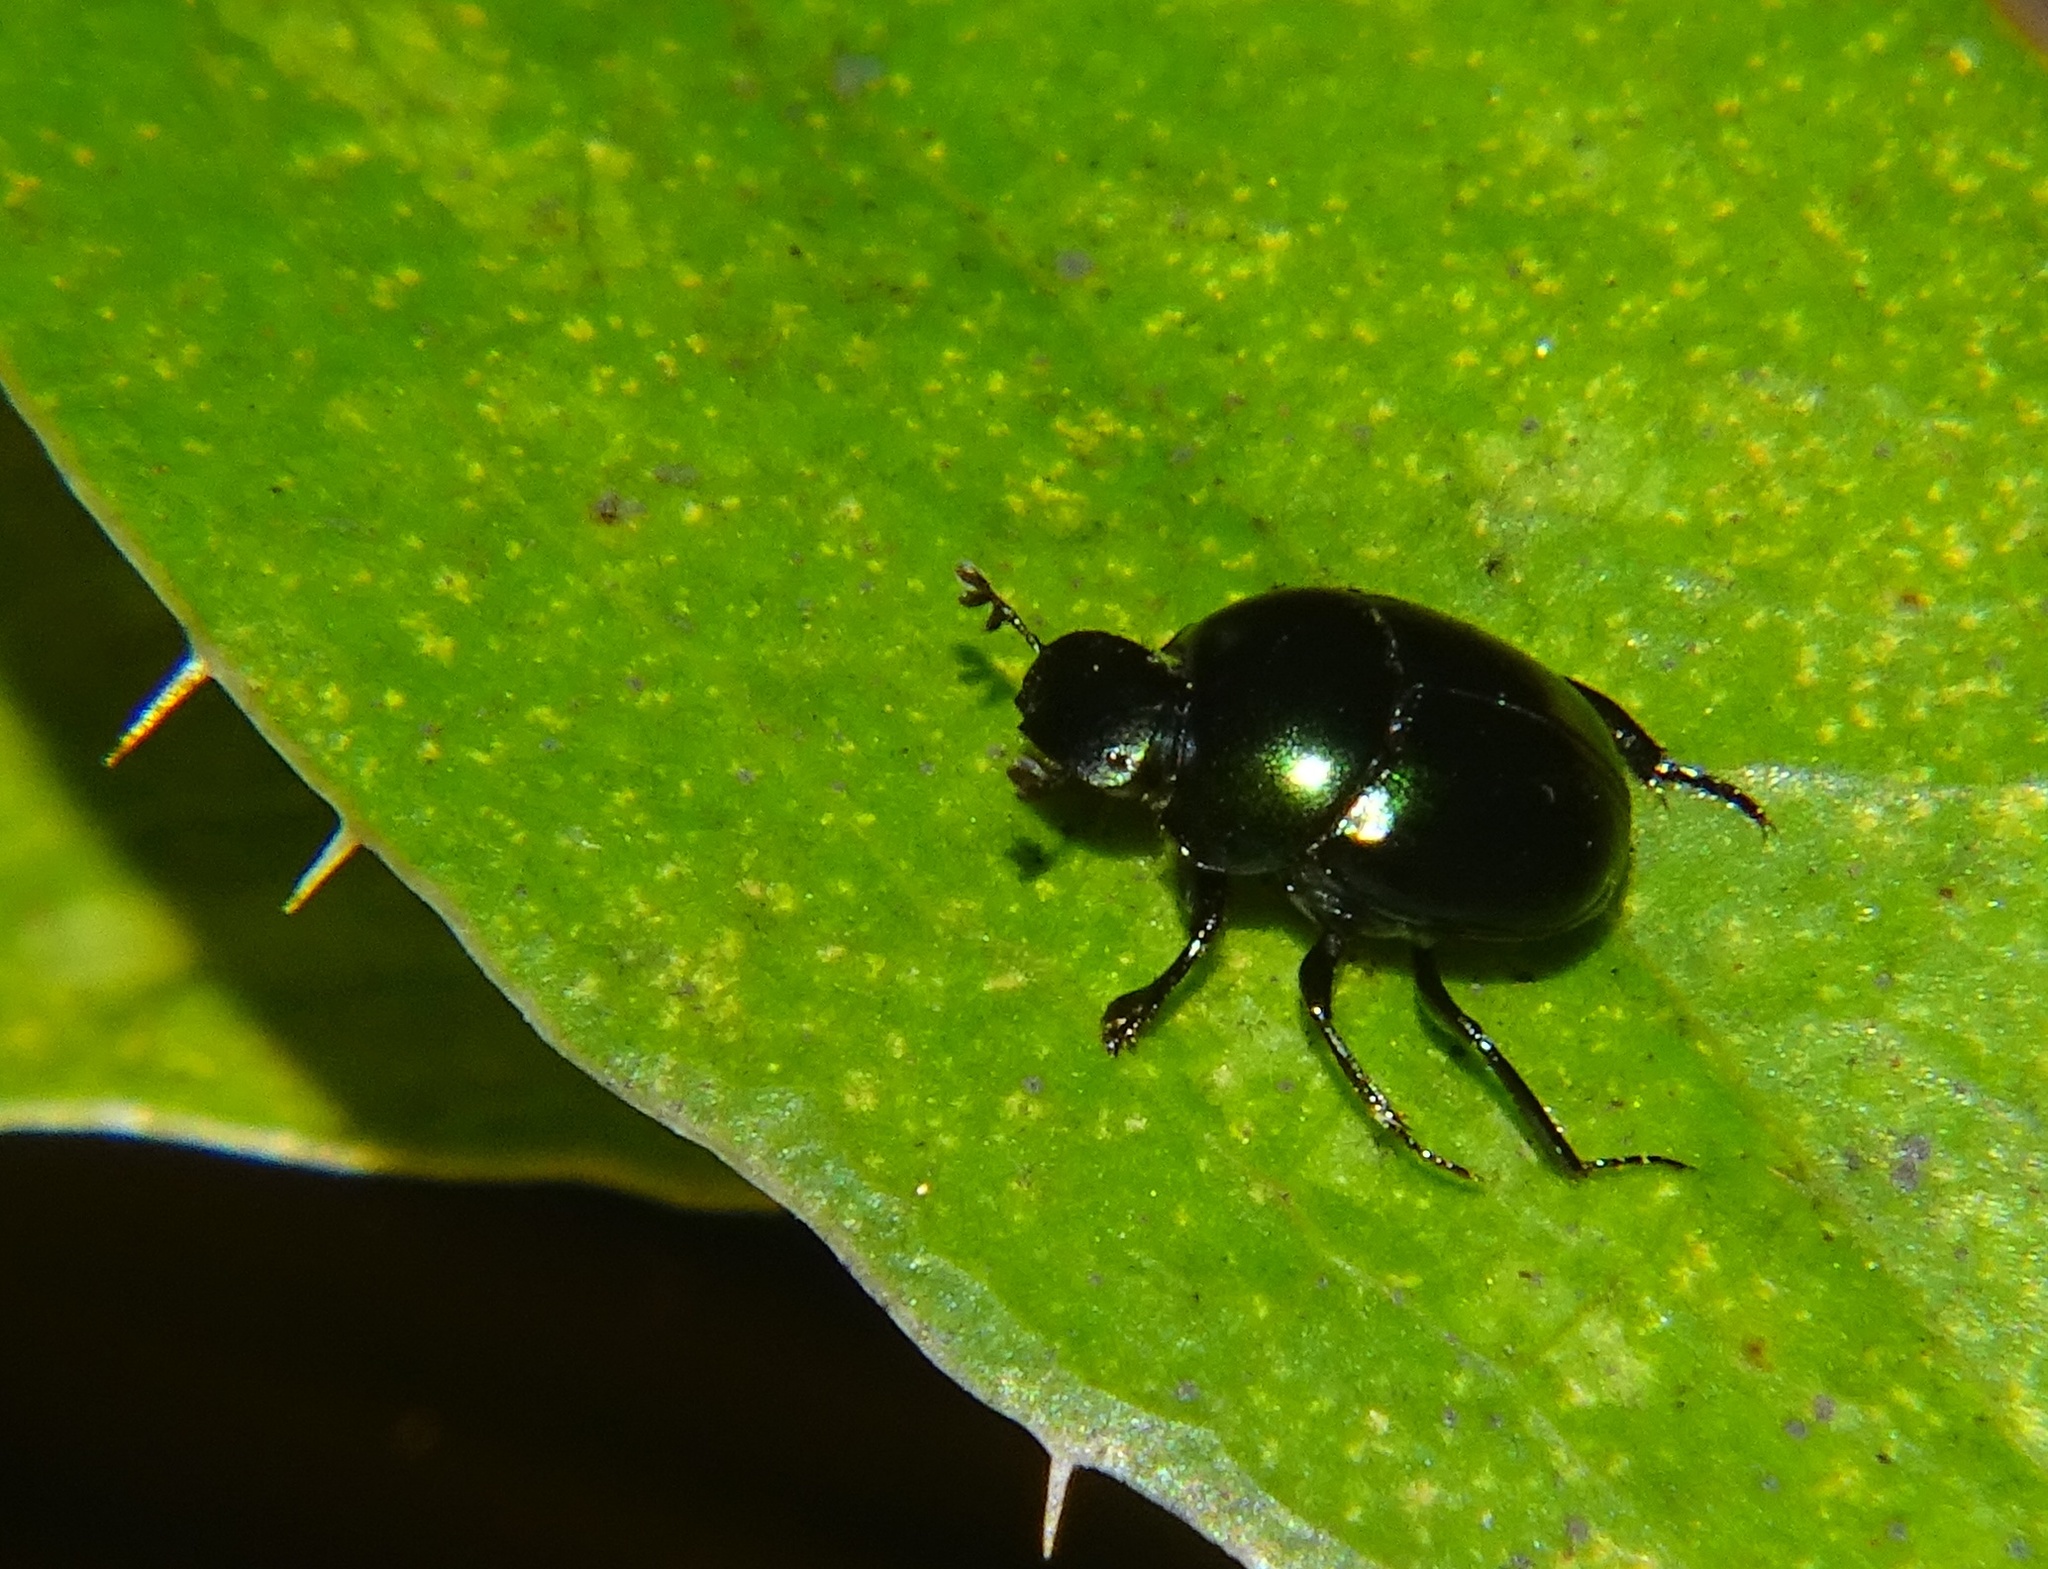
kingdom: Animalia
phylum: Arthropoda
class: Insecta
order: Coleoptera
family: Scarabaeidae
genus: Canthon
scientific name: Canthon viridis
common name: Tumblebug
